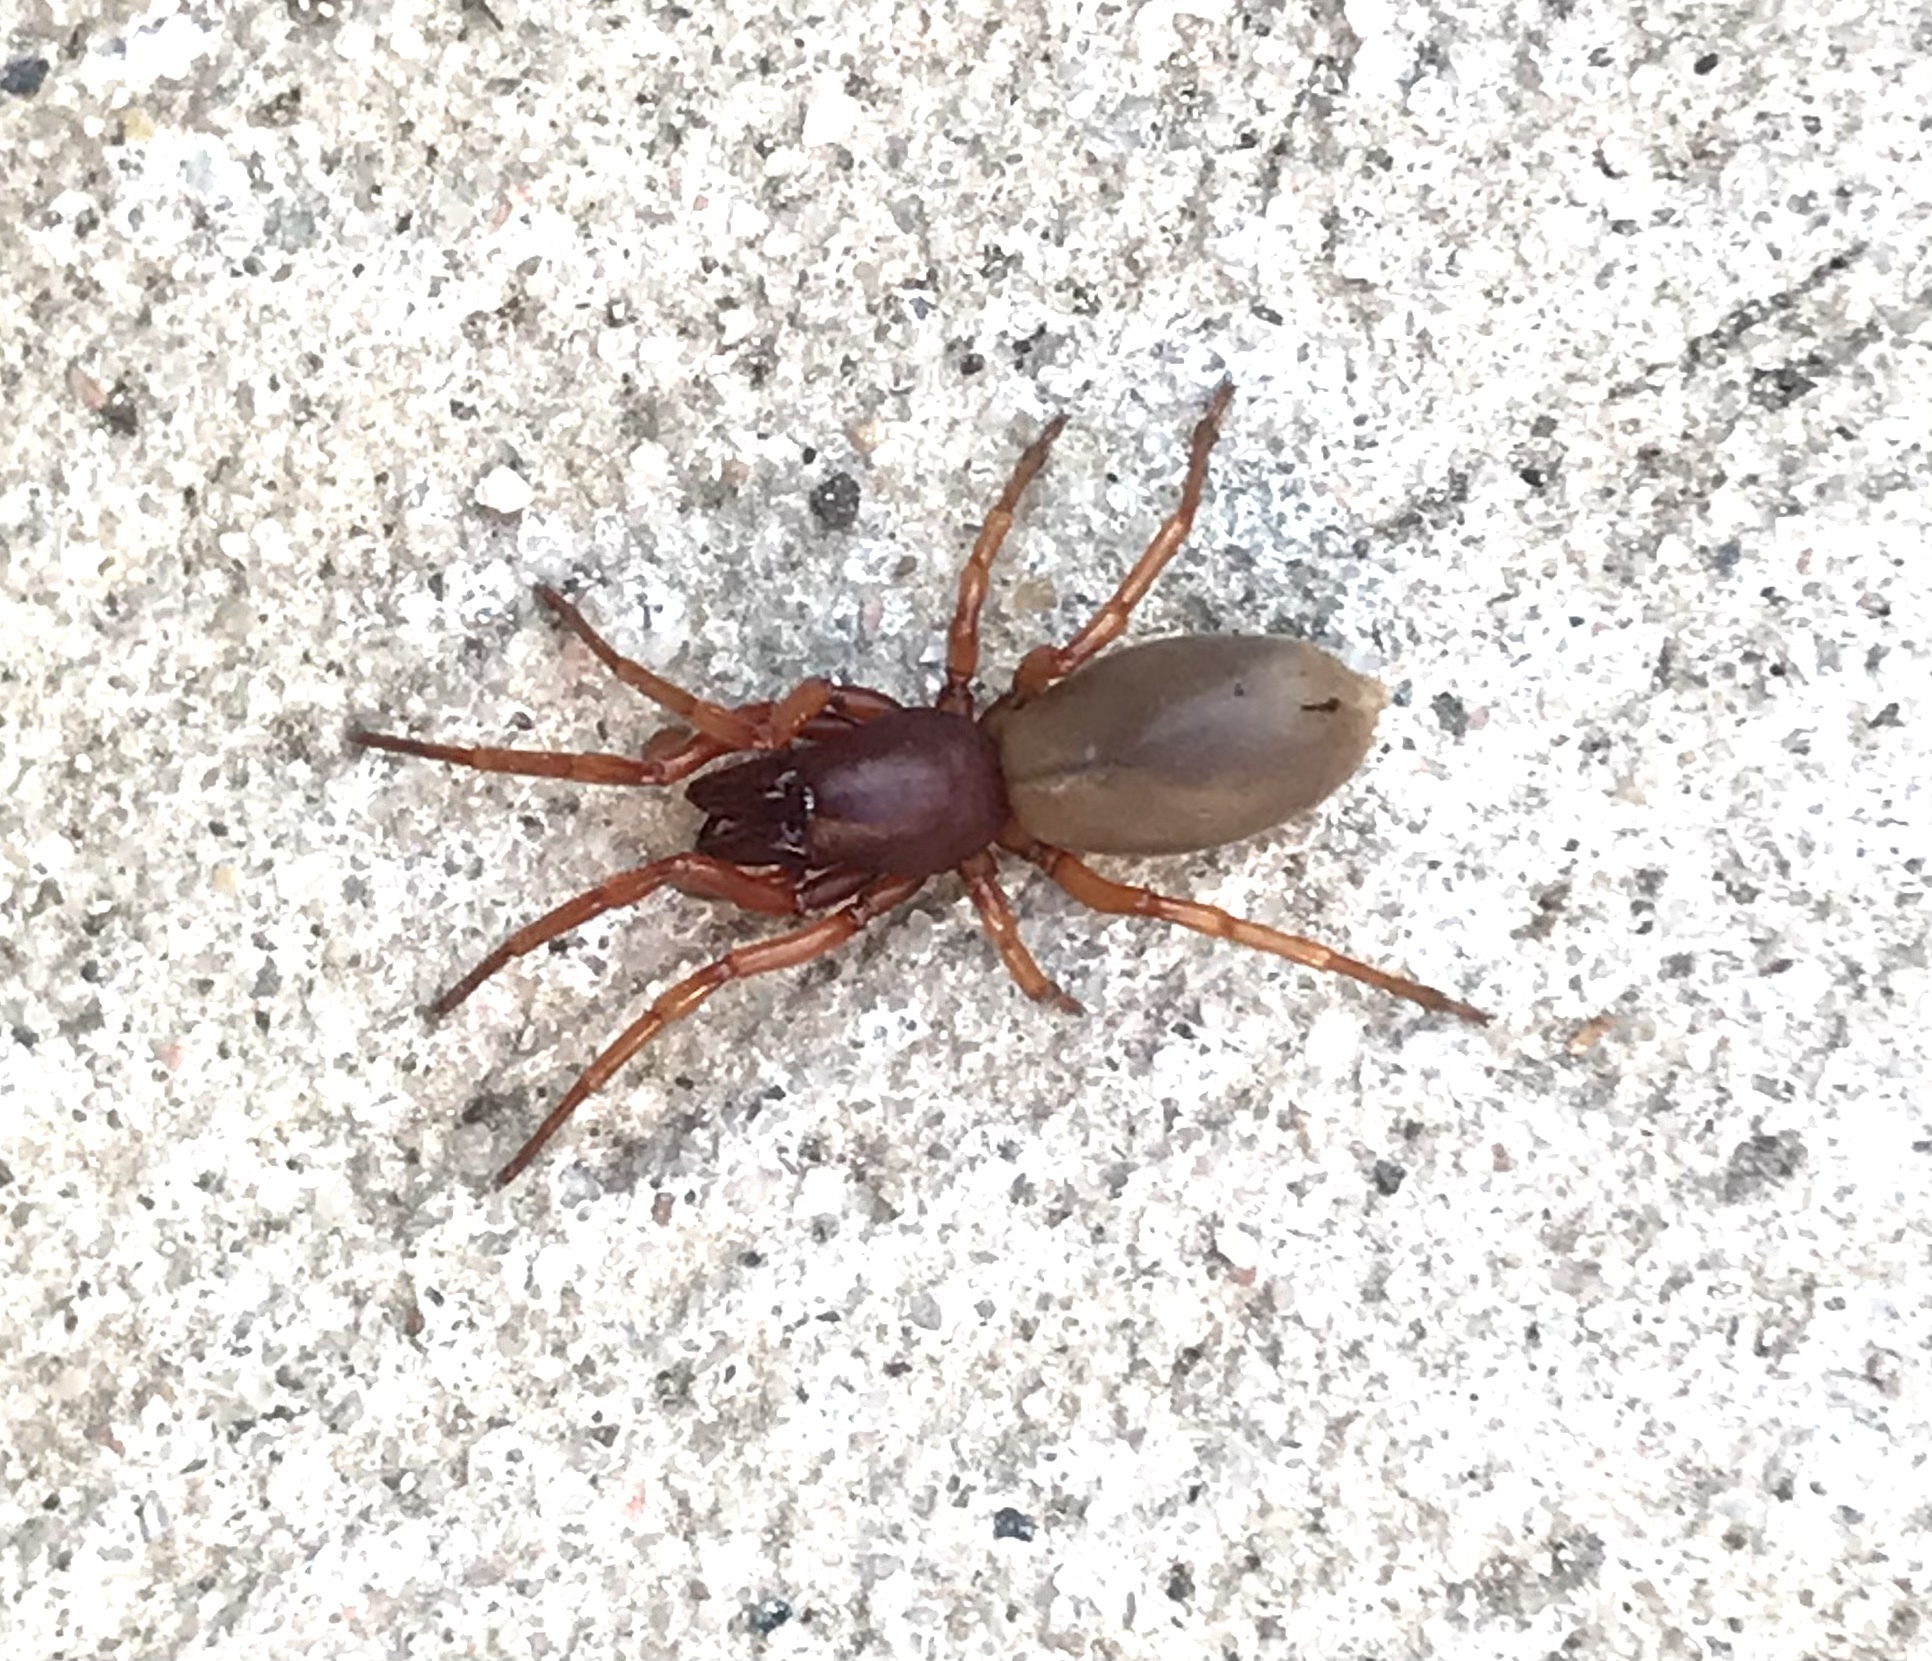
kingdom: Animalia
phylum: Arthropoda
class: Arachnida
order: Araneae
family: Dysderidae
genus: Dysdera
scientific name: Dysdera crocata
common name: Woodlouse spider
